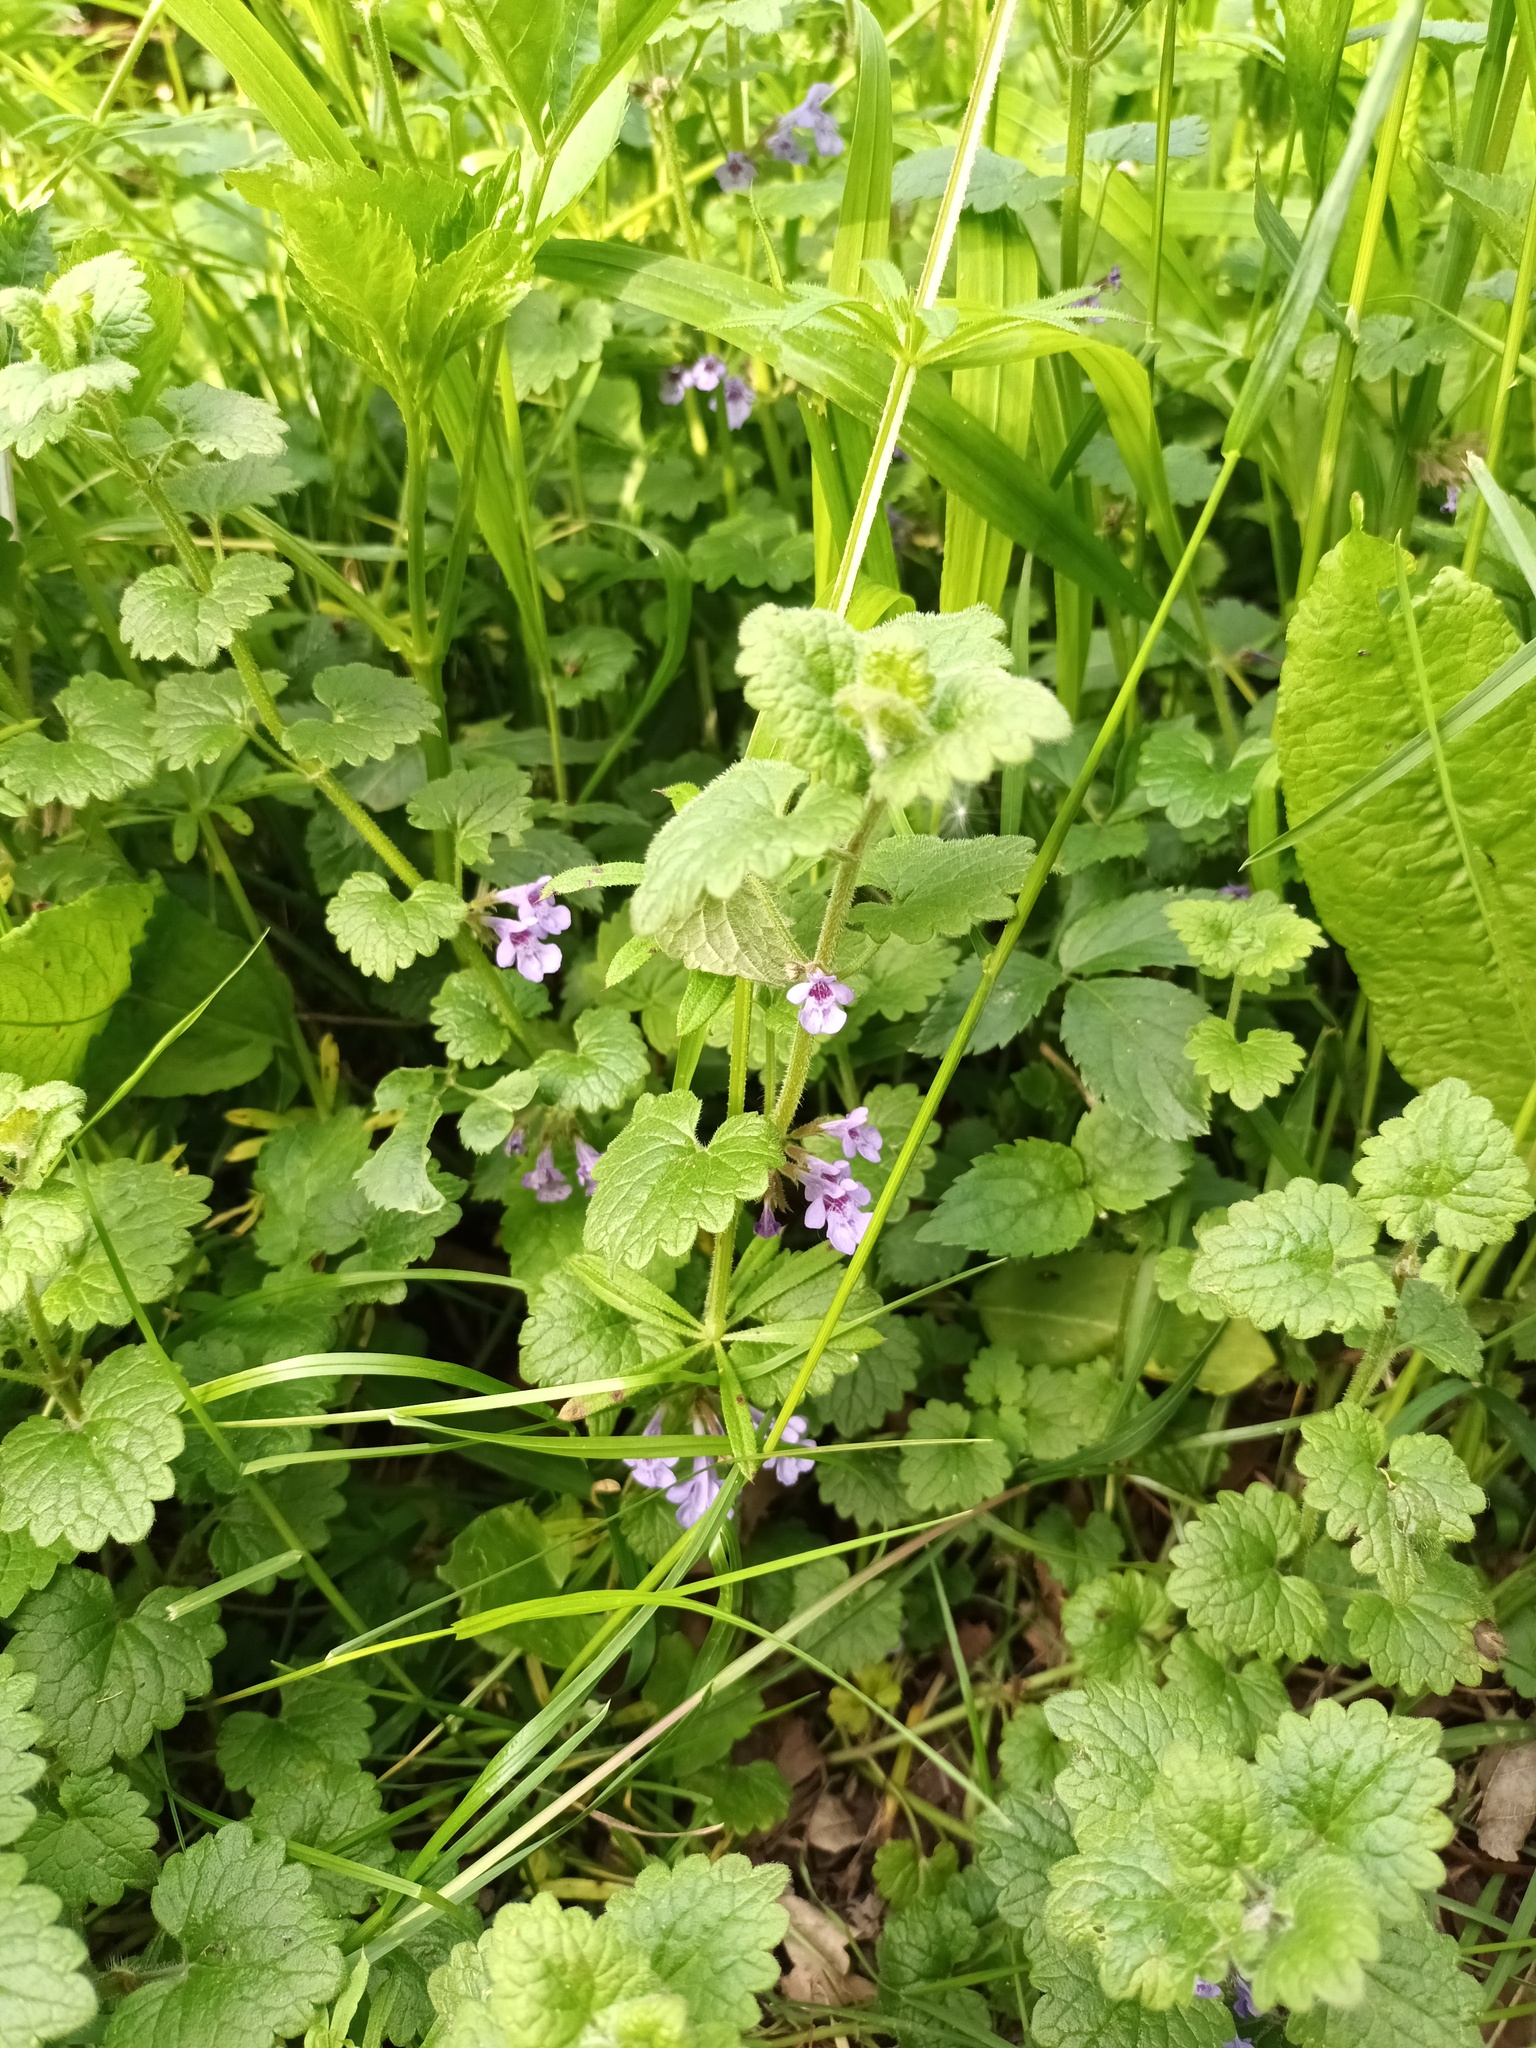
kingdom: Plantae
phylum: Tracheophyta
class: Magnoliopsida
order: Lamiales
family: Lamiaceae
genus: Glechoma
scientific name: Glechoma hederacea
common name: Ground ivy
